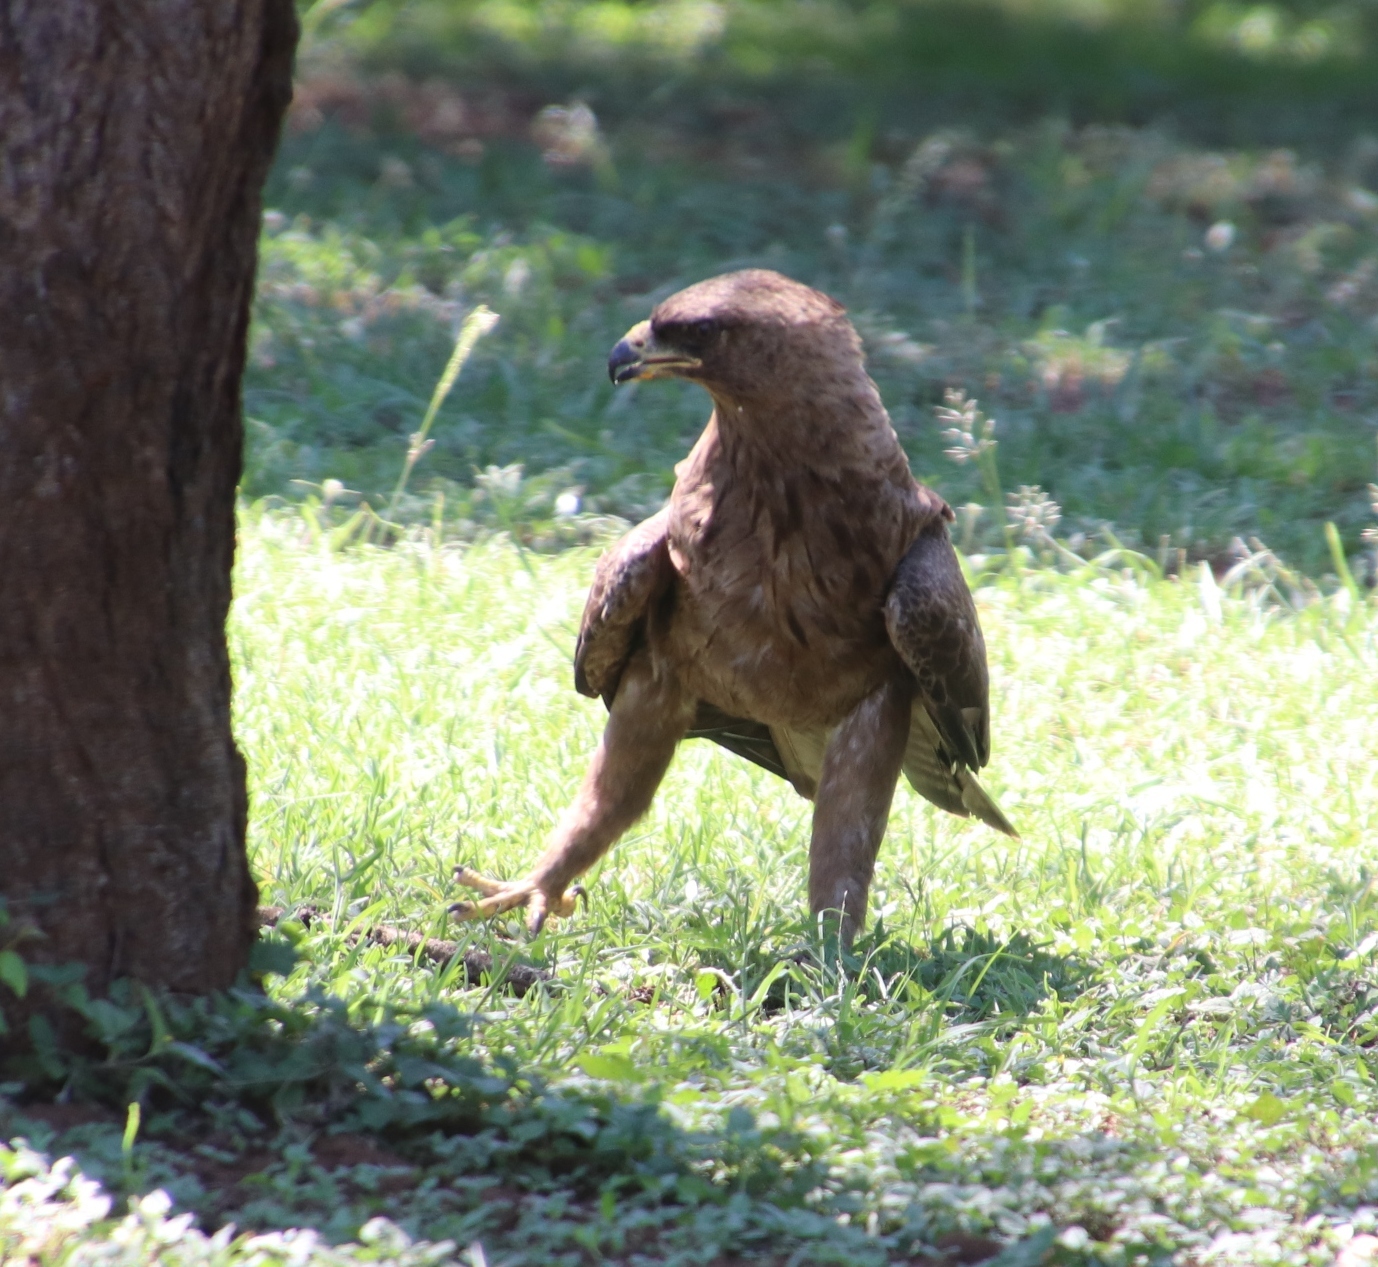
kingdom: Animalia
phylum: Chordata
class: Aves
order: Accipitriformes
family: Accipitridae
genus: Aquila
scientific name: Aquila rapax
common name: Tawny eagle
